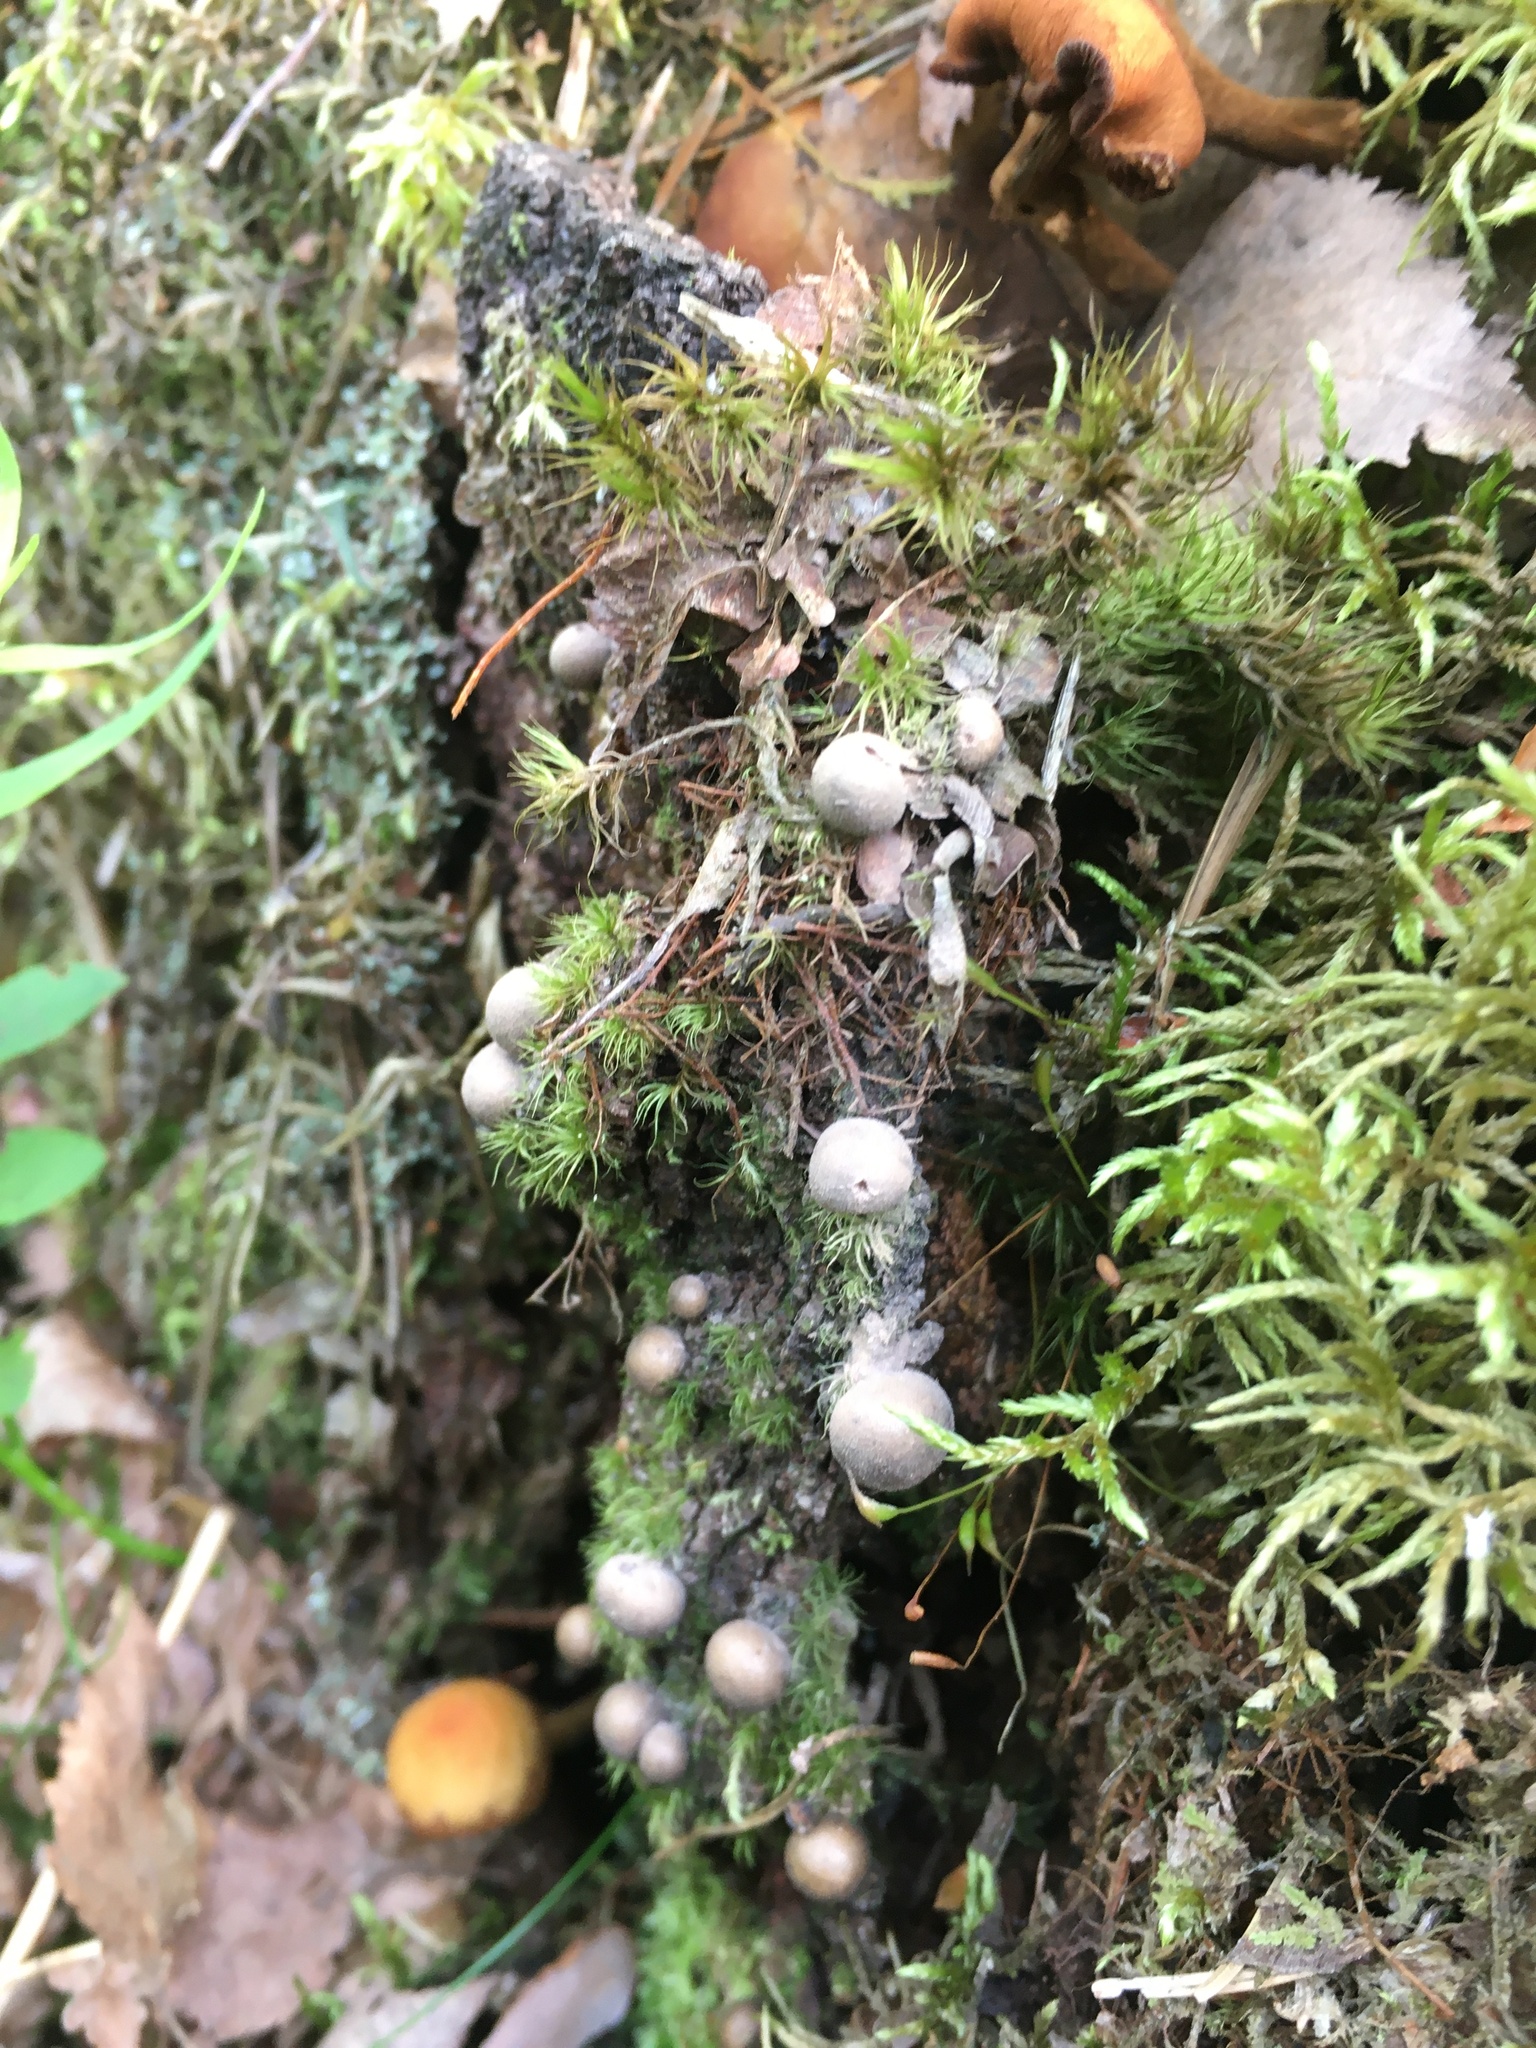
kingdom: Protozoa
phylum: Mycetozoa
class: Myxomycetes
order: Cribrariales
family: Tubiferaceae
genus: Lycogala
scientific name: Lycogala epidendrum
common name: Wolf's milk
